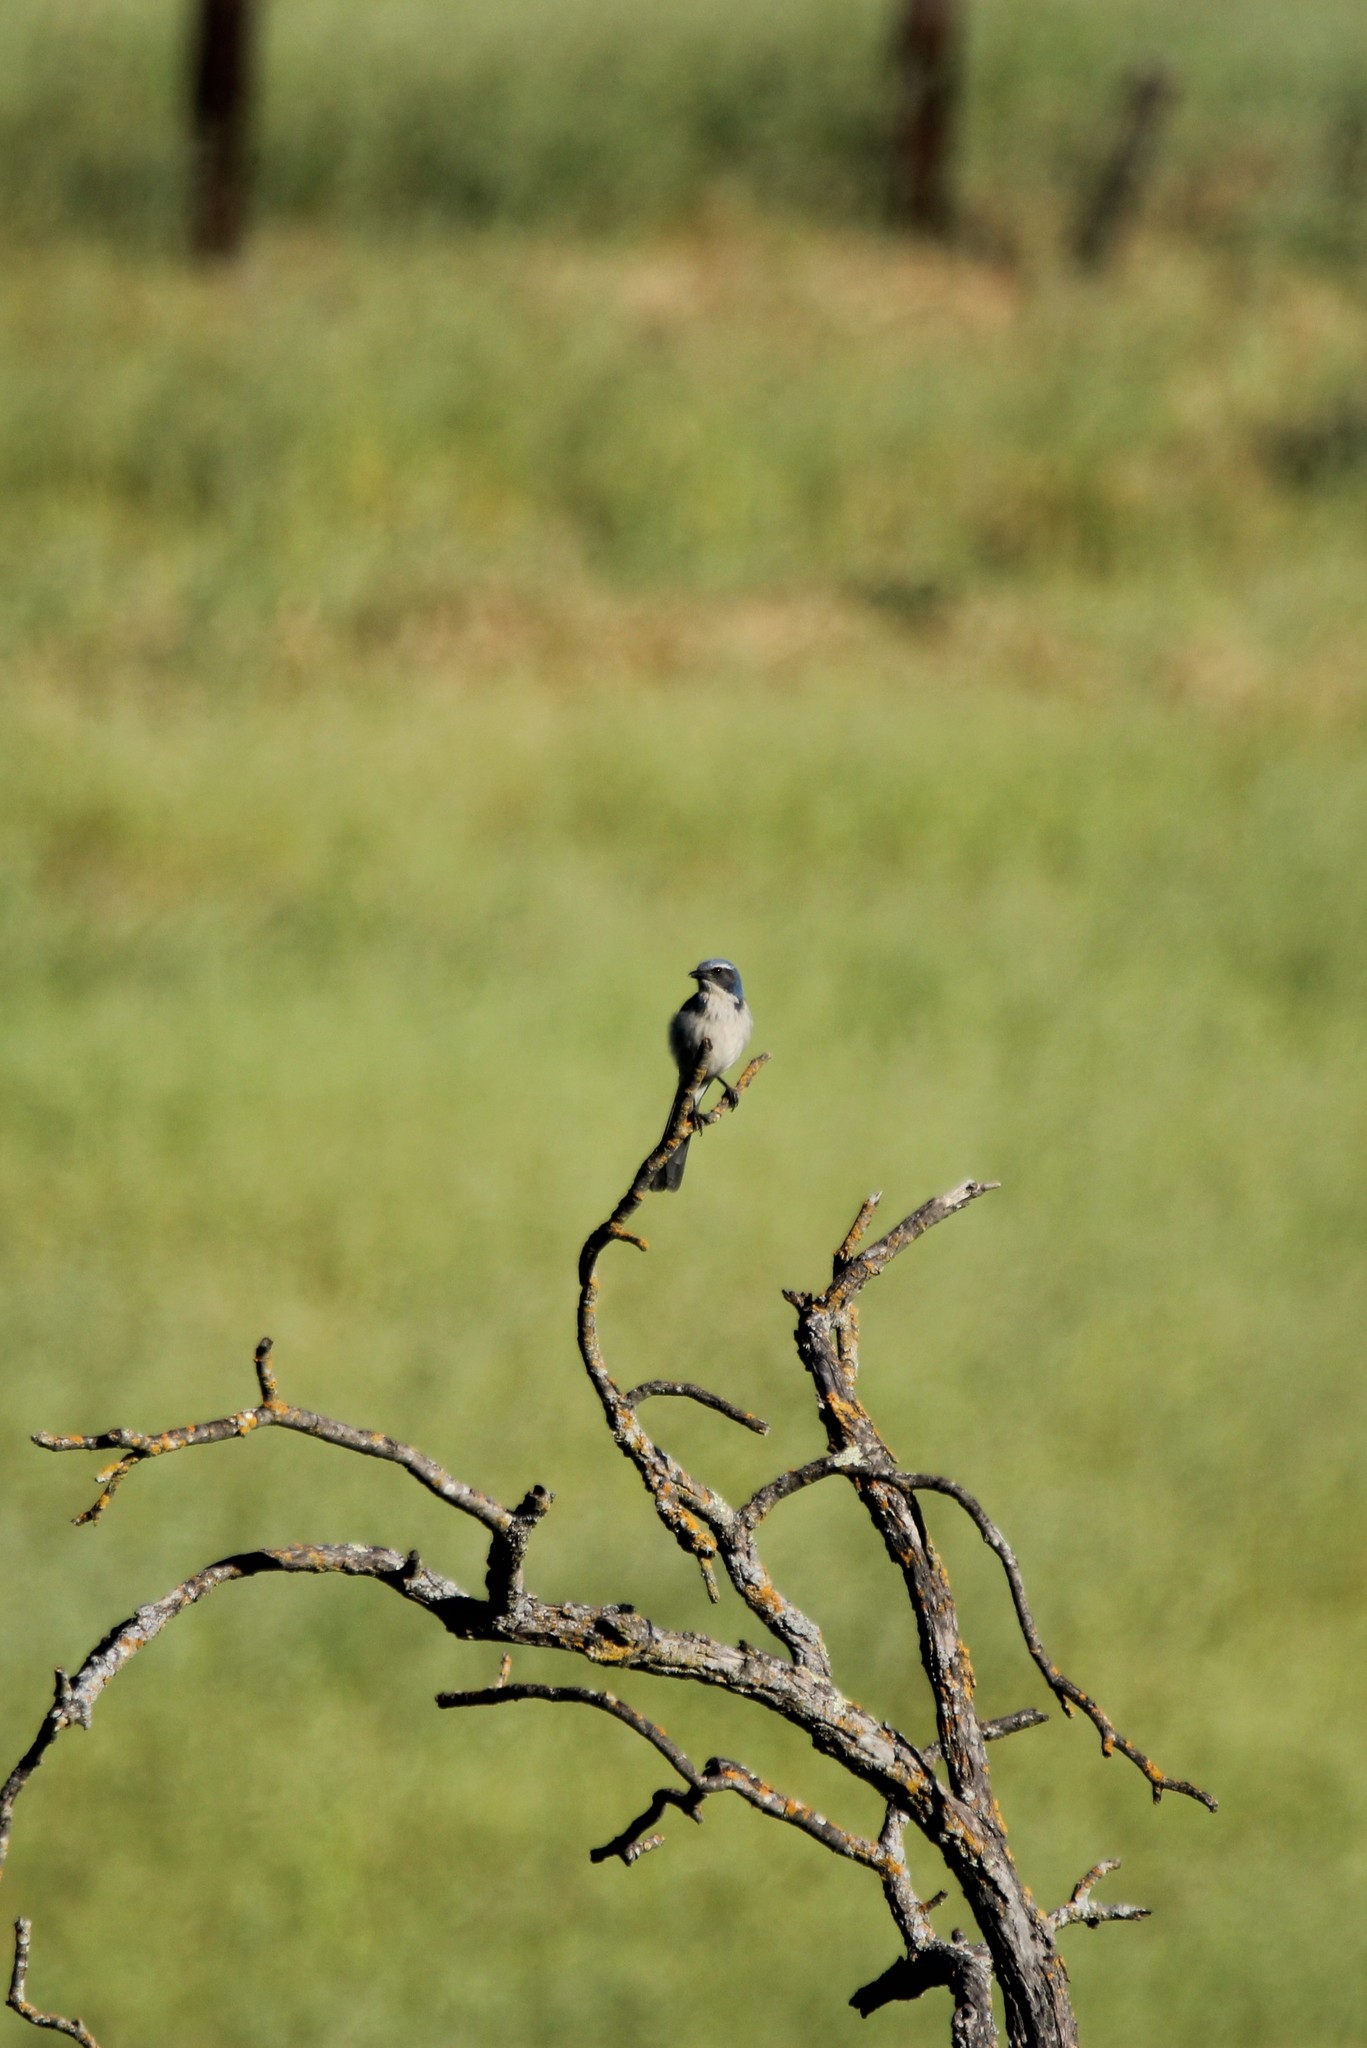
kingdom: Animalia
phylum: Chordata
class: Aves
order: Passeriformes
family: Corvidae
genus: Aphelocoma
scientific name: Aphelocoma californica
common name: California scrub-jay
